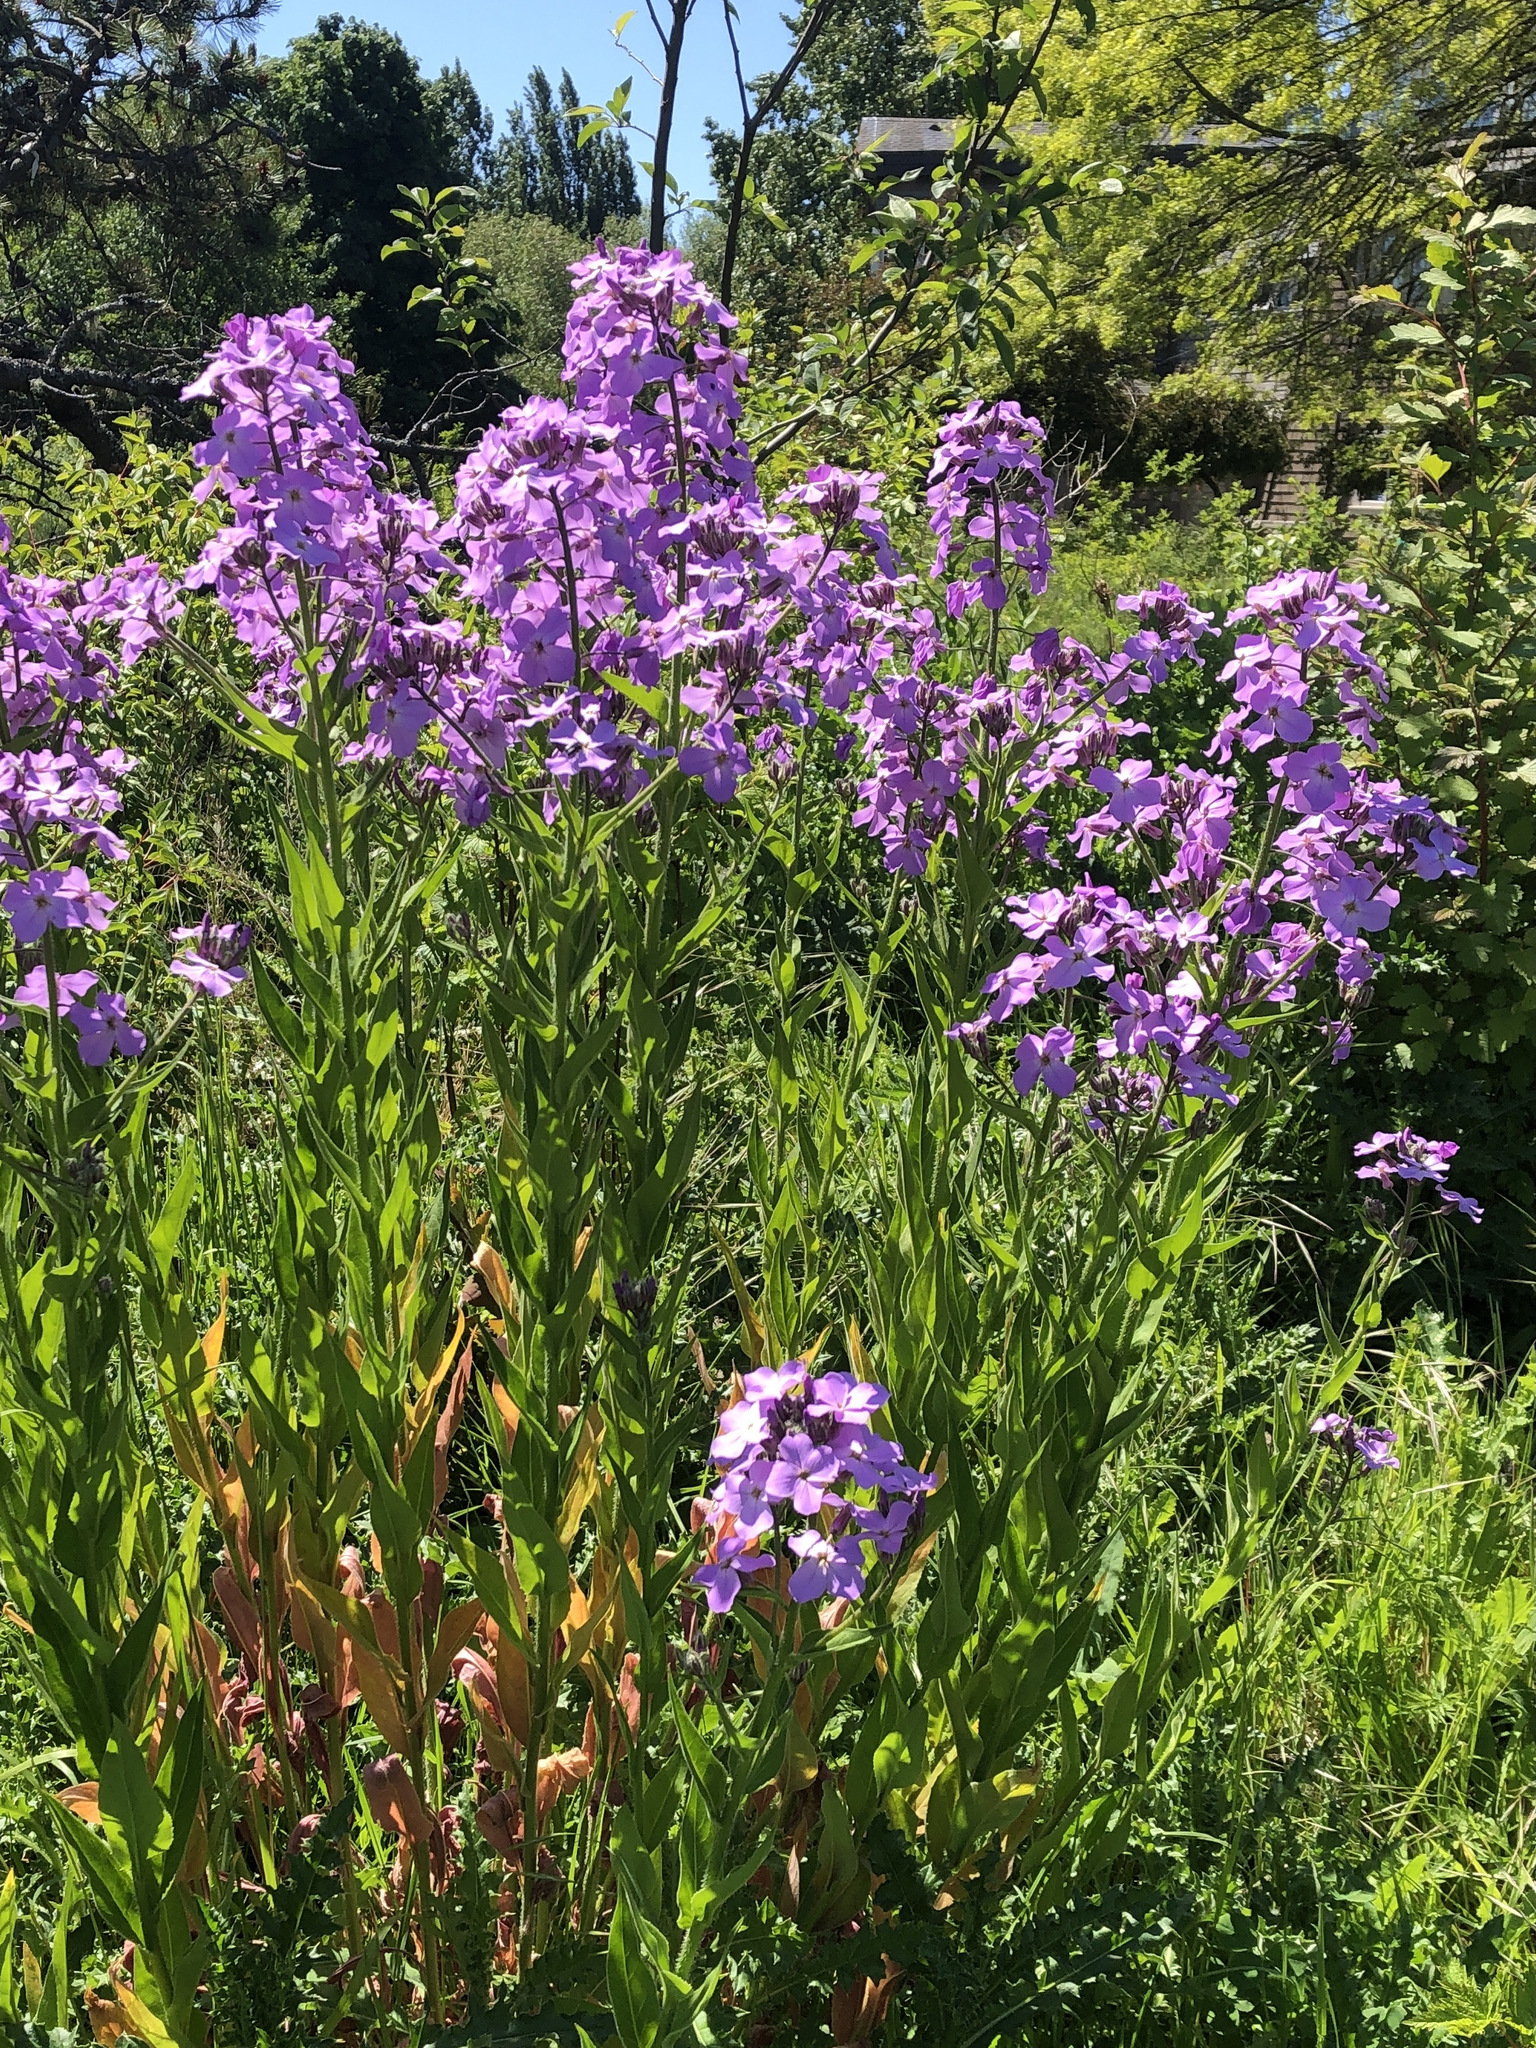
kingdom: Plantae
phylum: Tracheophyta
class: Magnoliopsida
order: Brassicales
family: Brassicaceae
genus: Hesperis
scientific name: Hesperis matronalis
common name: Dame's-violet
